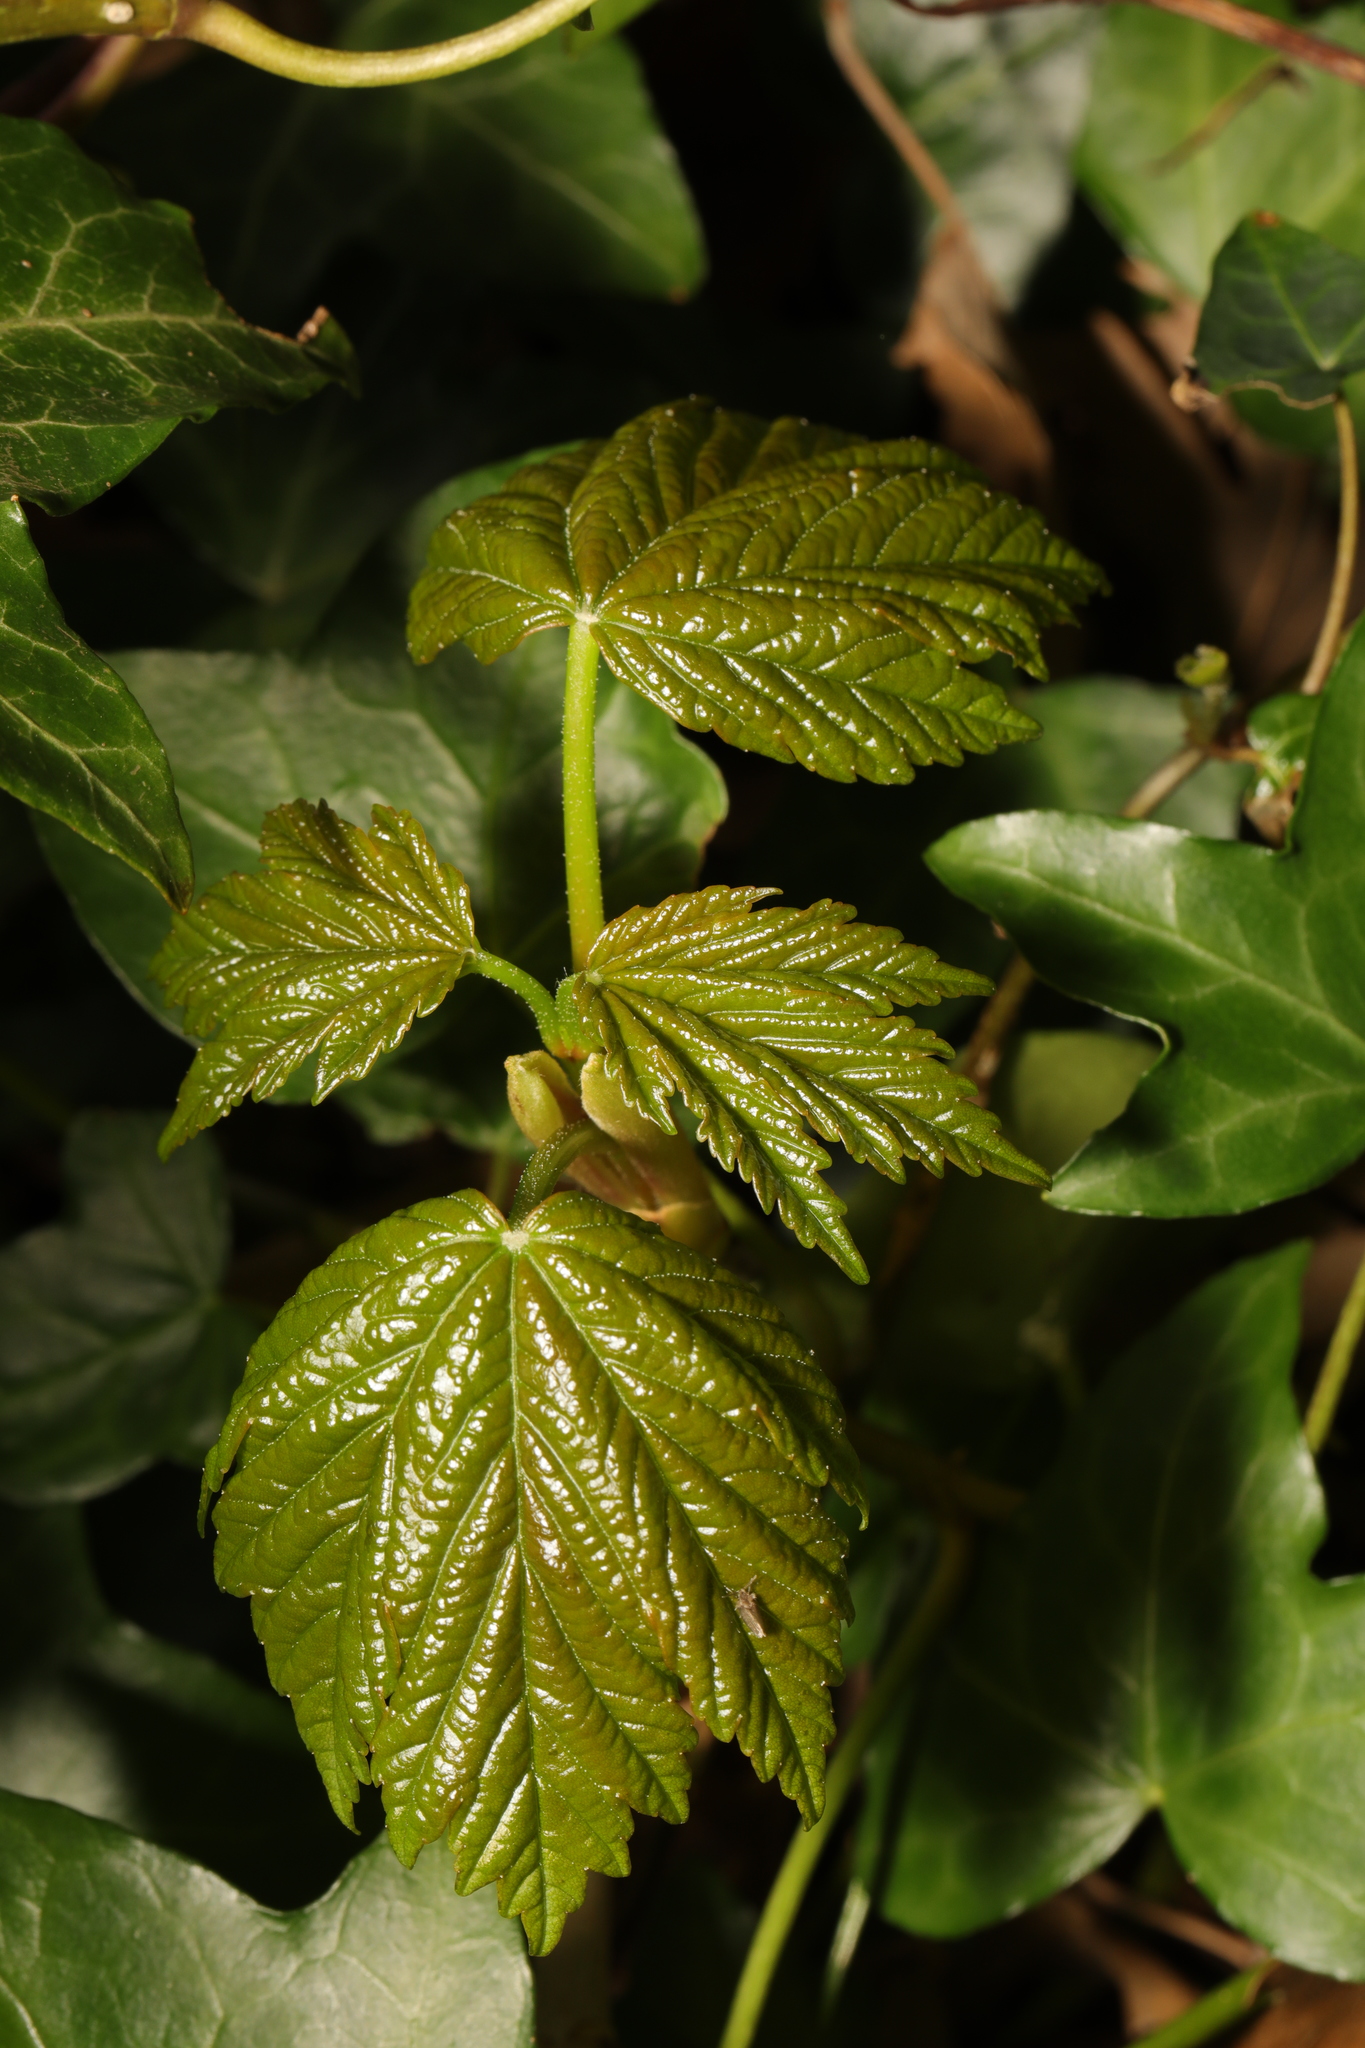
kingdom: Plantae
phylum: Tracheophyta
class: Magnoliopsida
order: Sapindales
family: Sapindaceae
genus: Acer
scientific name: Acer pseudoplatanus
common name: Sycamore
